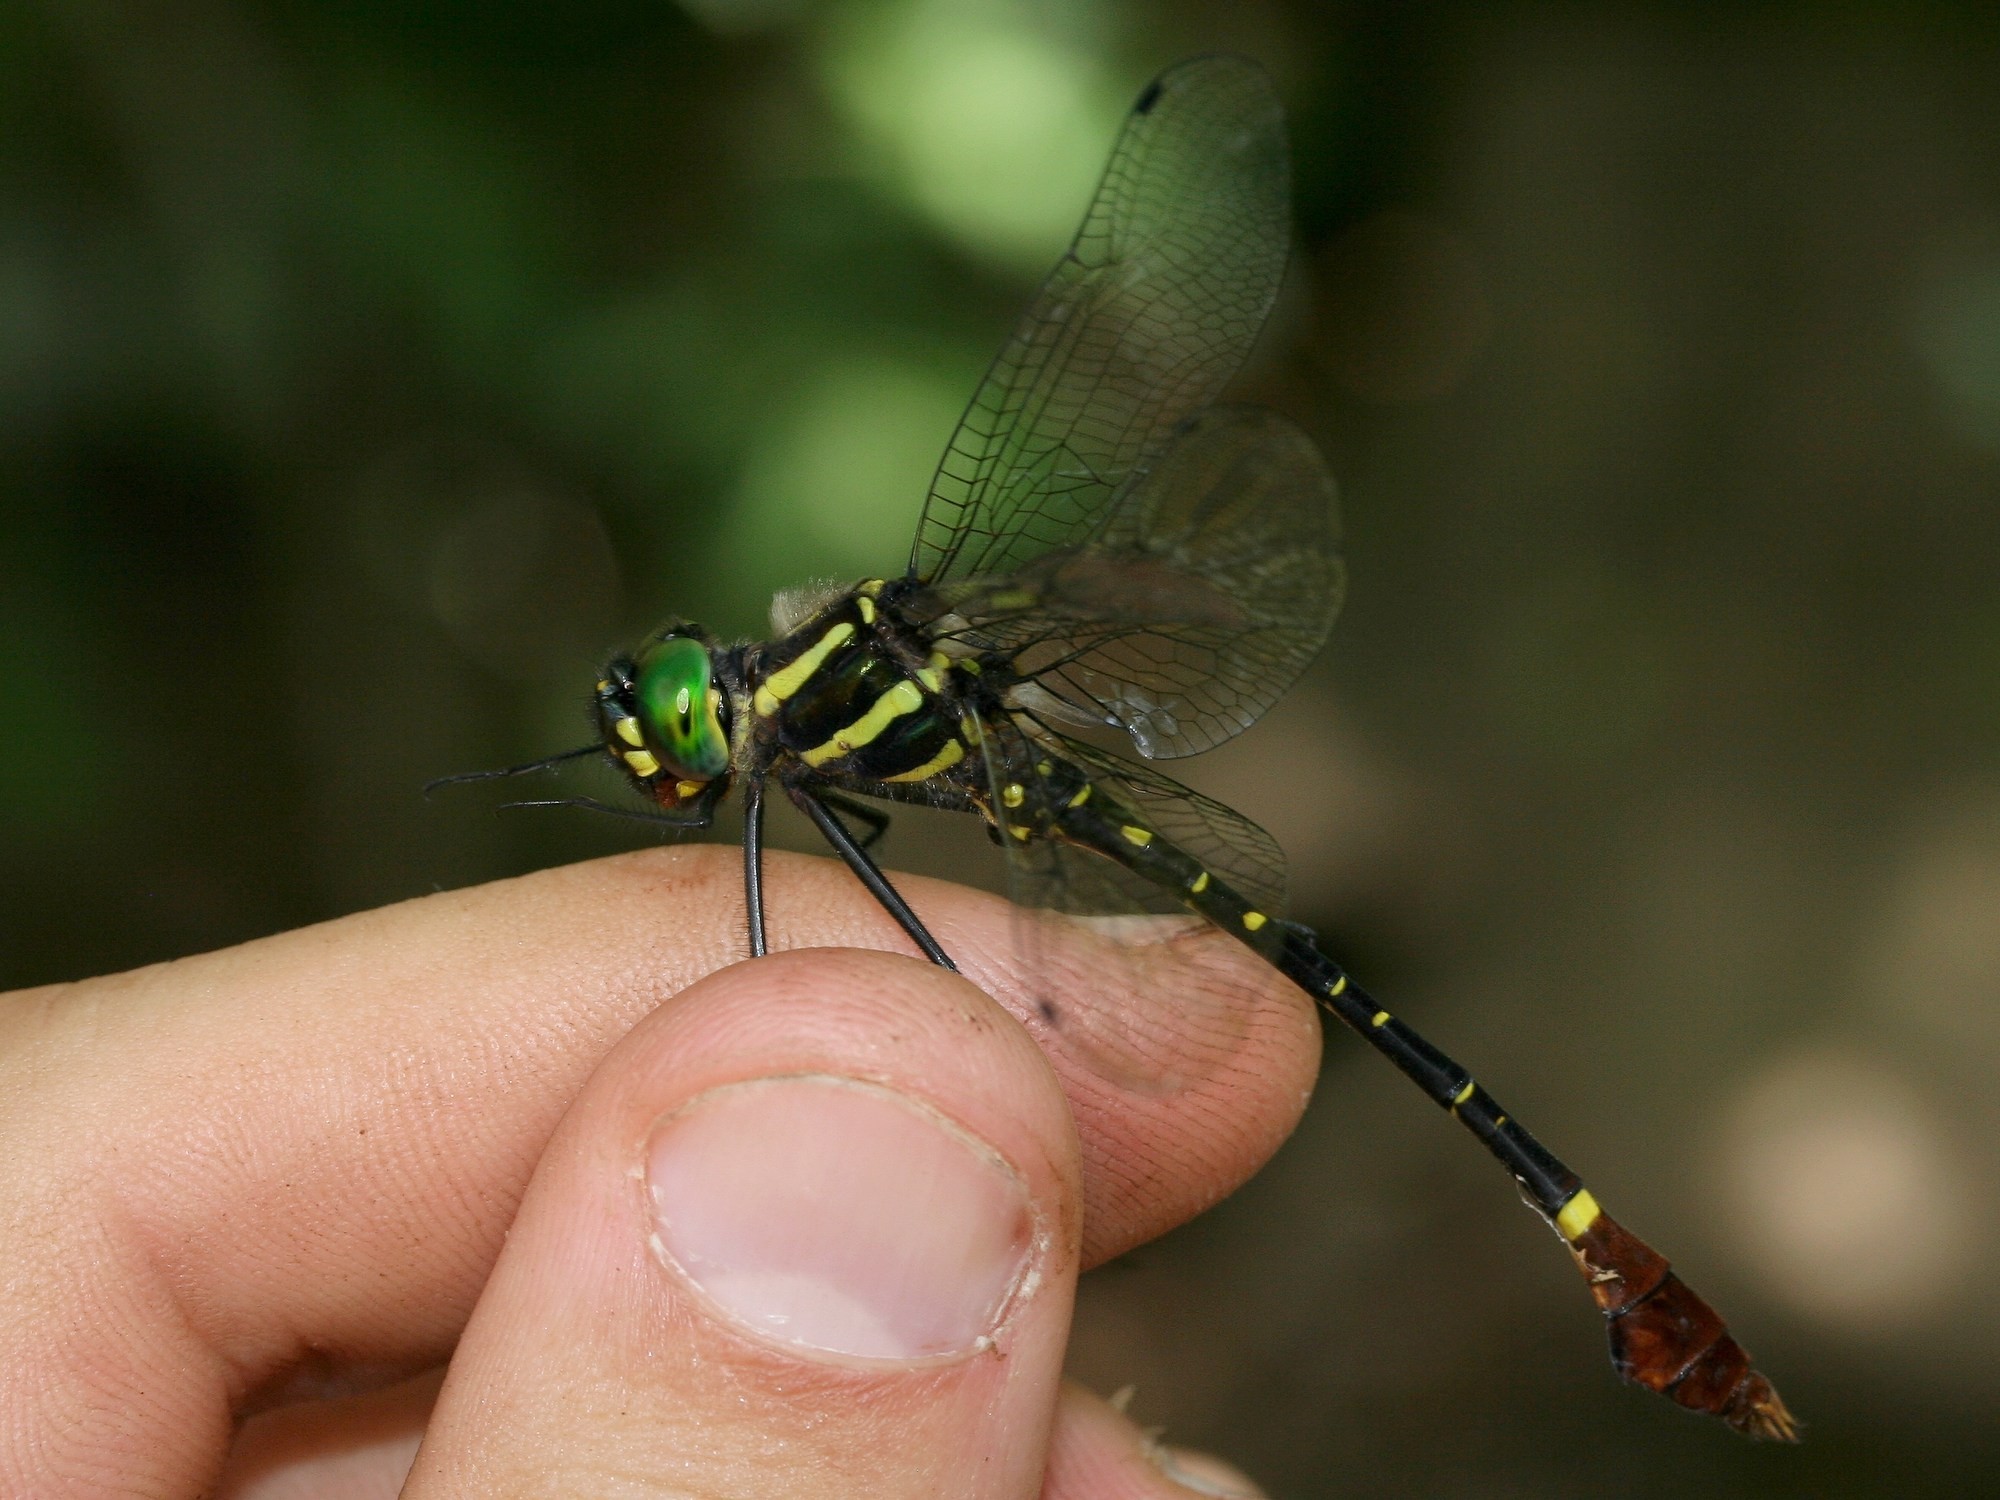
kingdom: Animalia
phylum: Arthropoda
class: Insecta
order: Odonata
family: Macromiidae
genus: Phyllomacromia
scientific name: Phyllomacromia trifasciata
